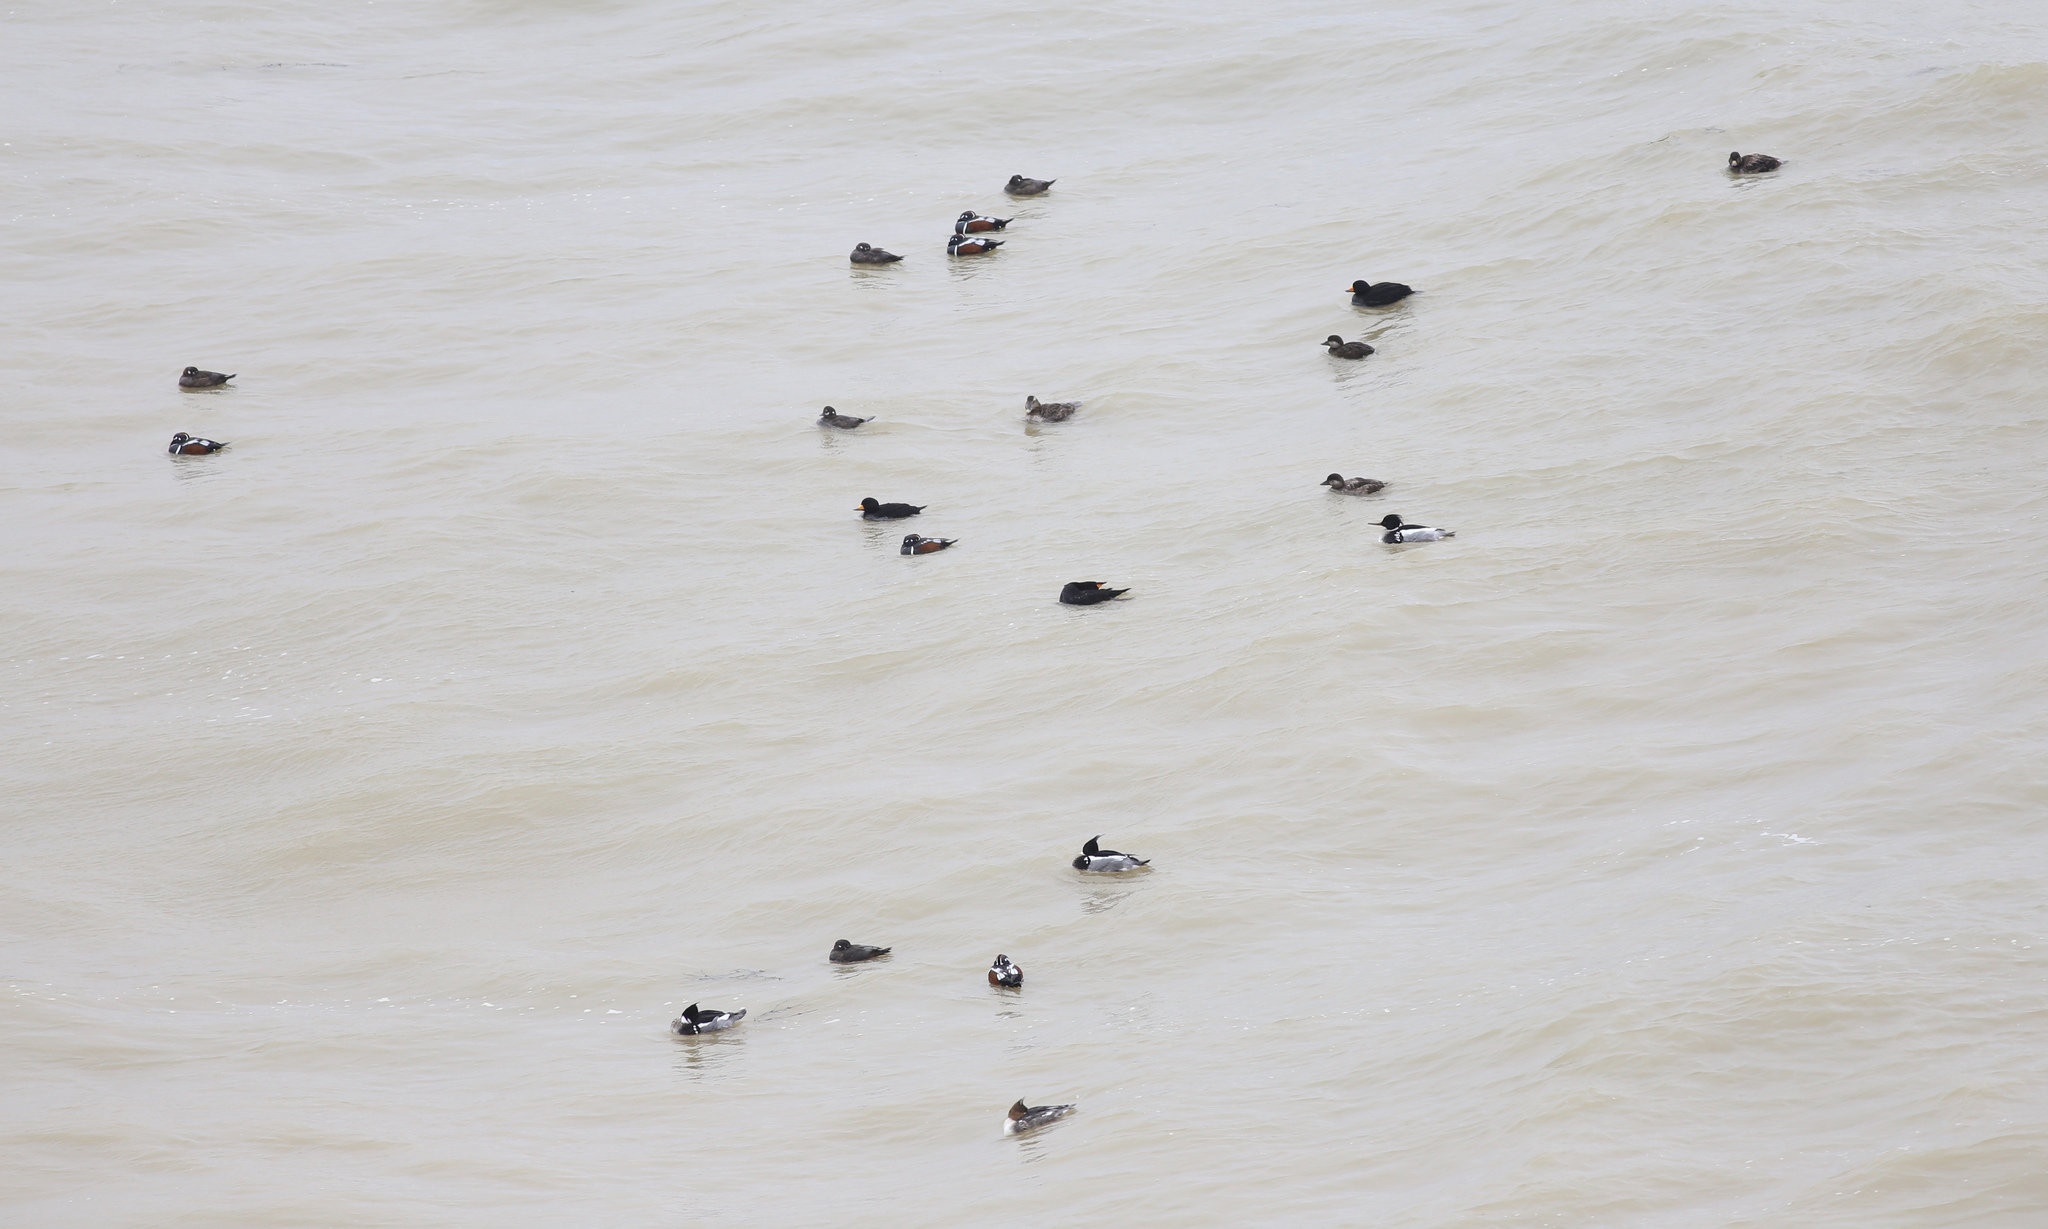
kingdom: Animalia
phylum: Chordata
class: Aves
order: Anseriformes
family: Anatidae
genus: Mergus
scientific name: Mergus serrator
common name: Red-breasted merganser
